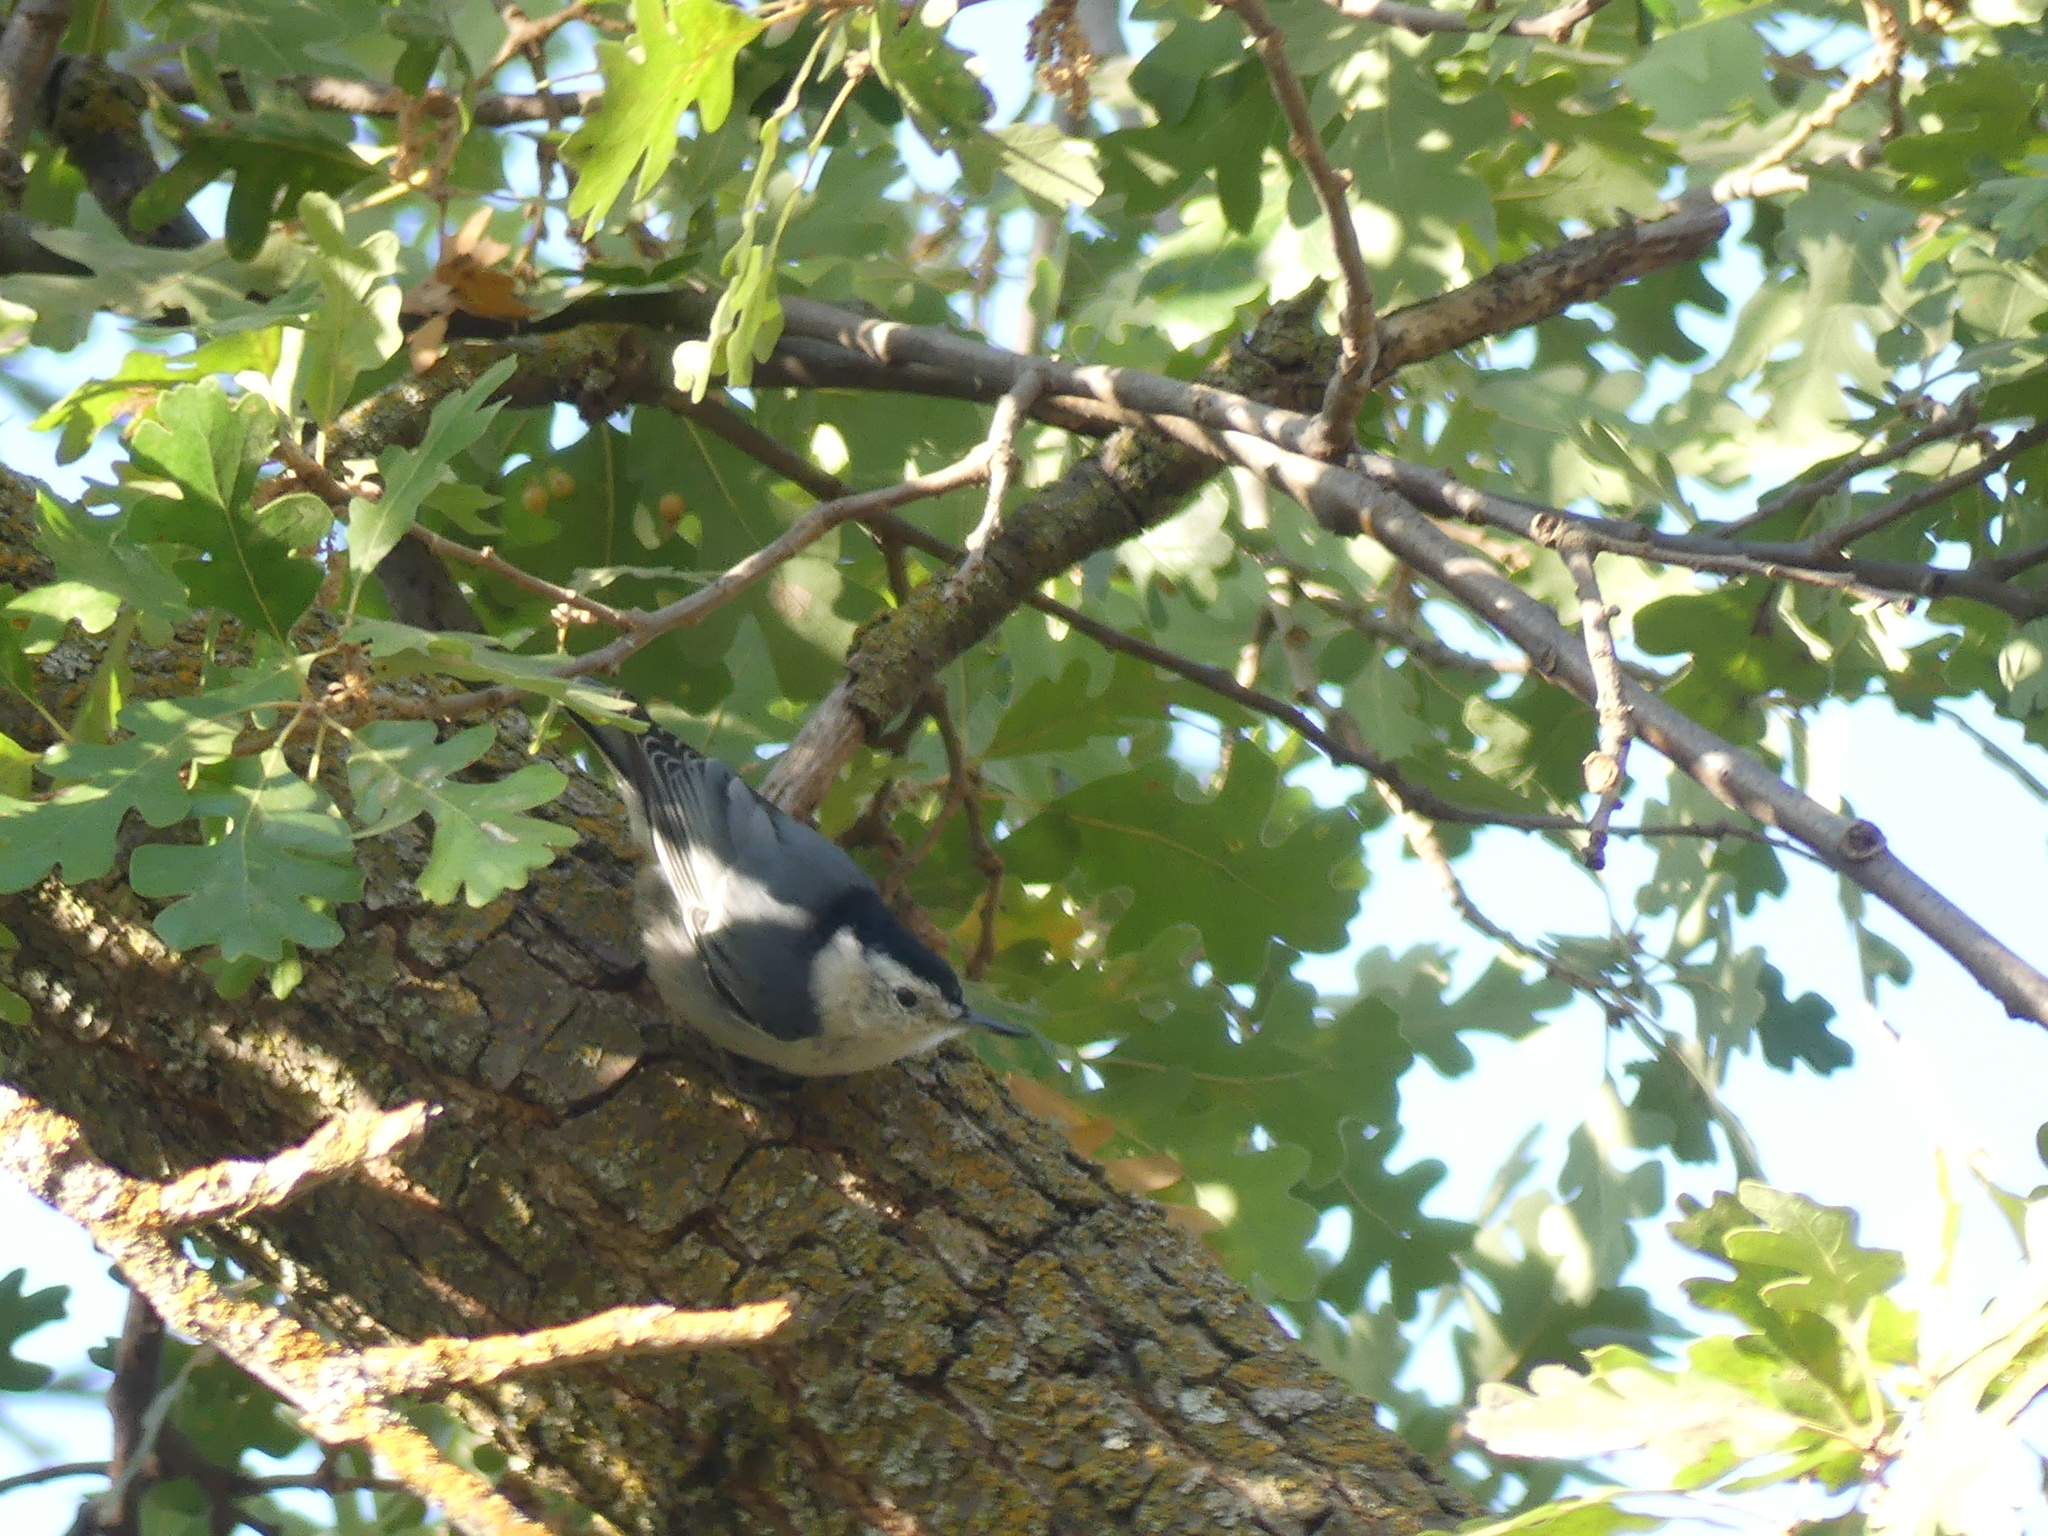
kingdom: Animalia
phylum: Chordata
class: Aves
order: Passeriformes
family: Sittidae
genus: Sitta
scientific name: Sitta carolinensis
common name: White-breasted nuthatch
